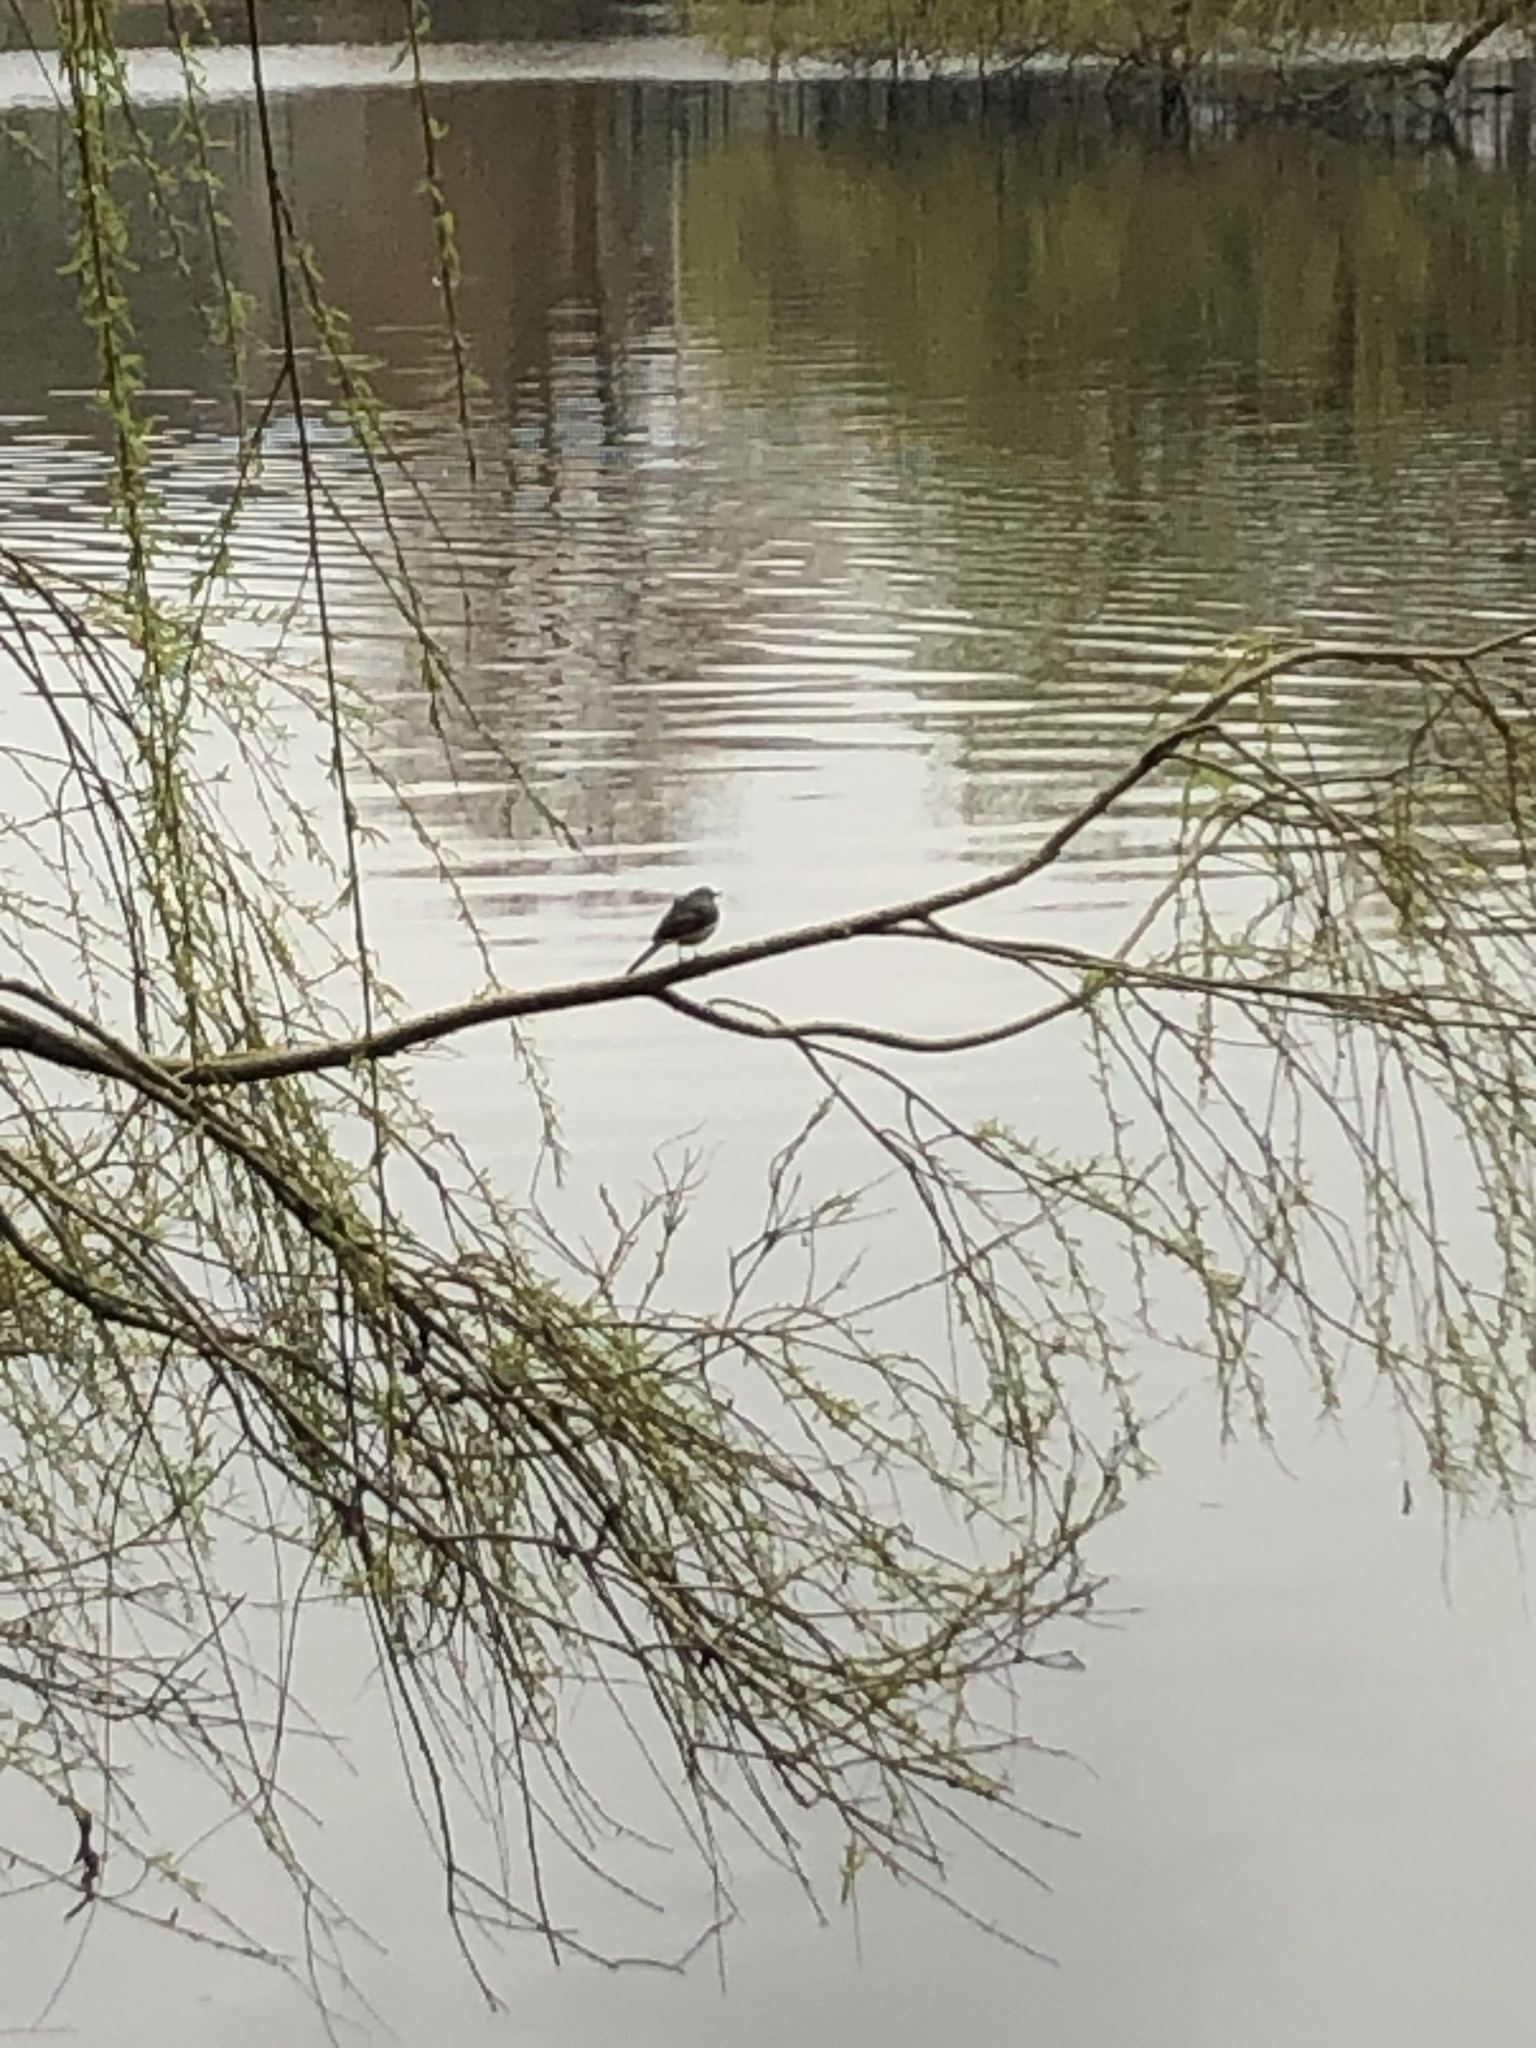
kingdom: Animalia
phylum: Chordata
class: Aves
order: Passeriformes
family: Motacillidae
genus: Motacilla
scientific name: Motacilla cinerea
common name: Grey wagtail
